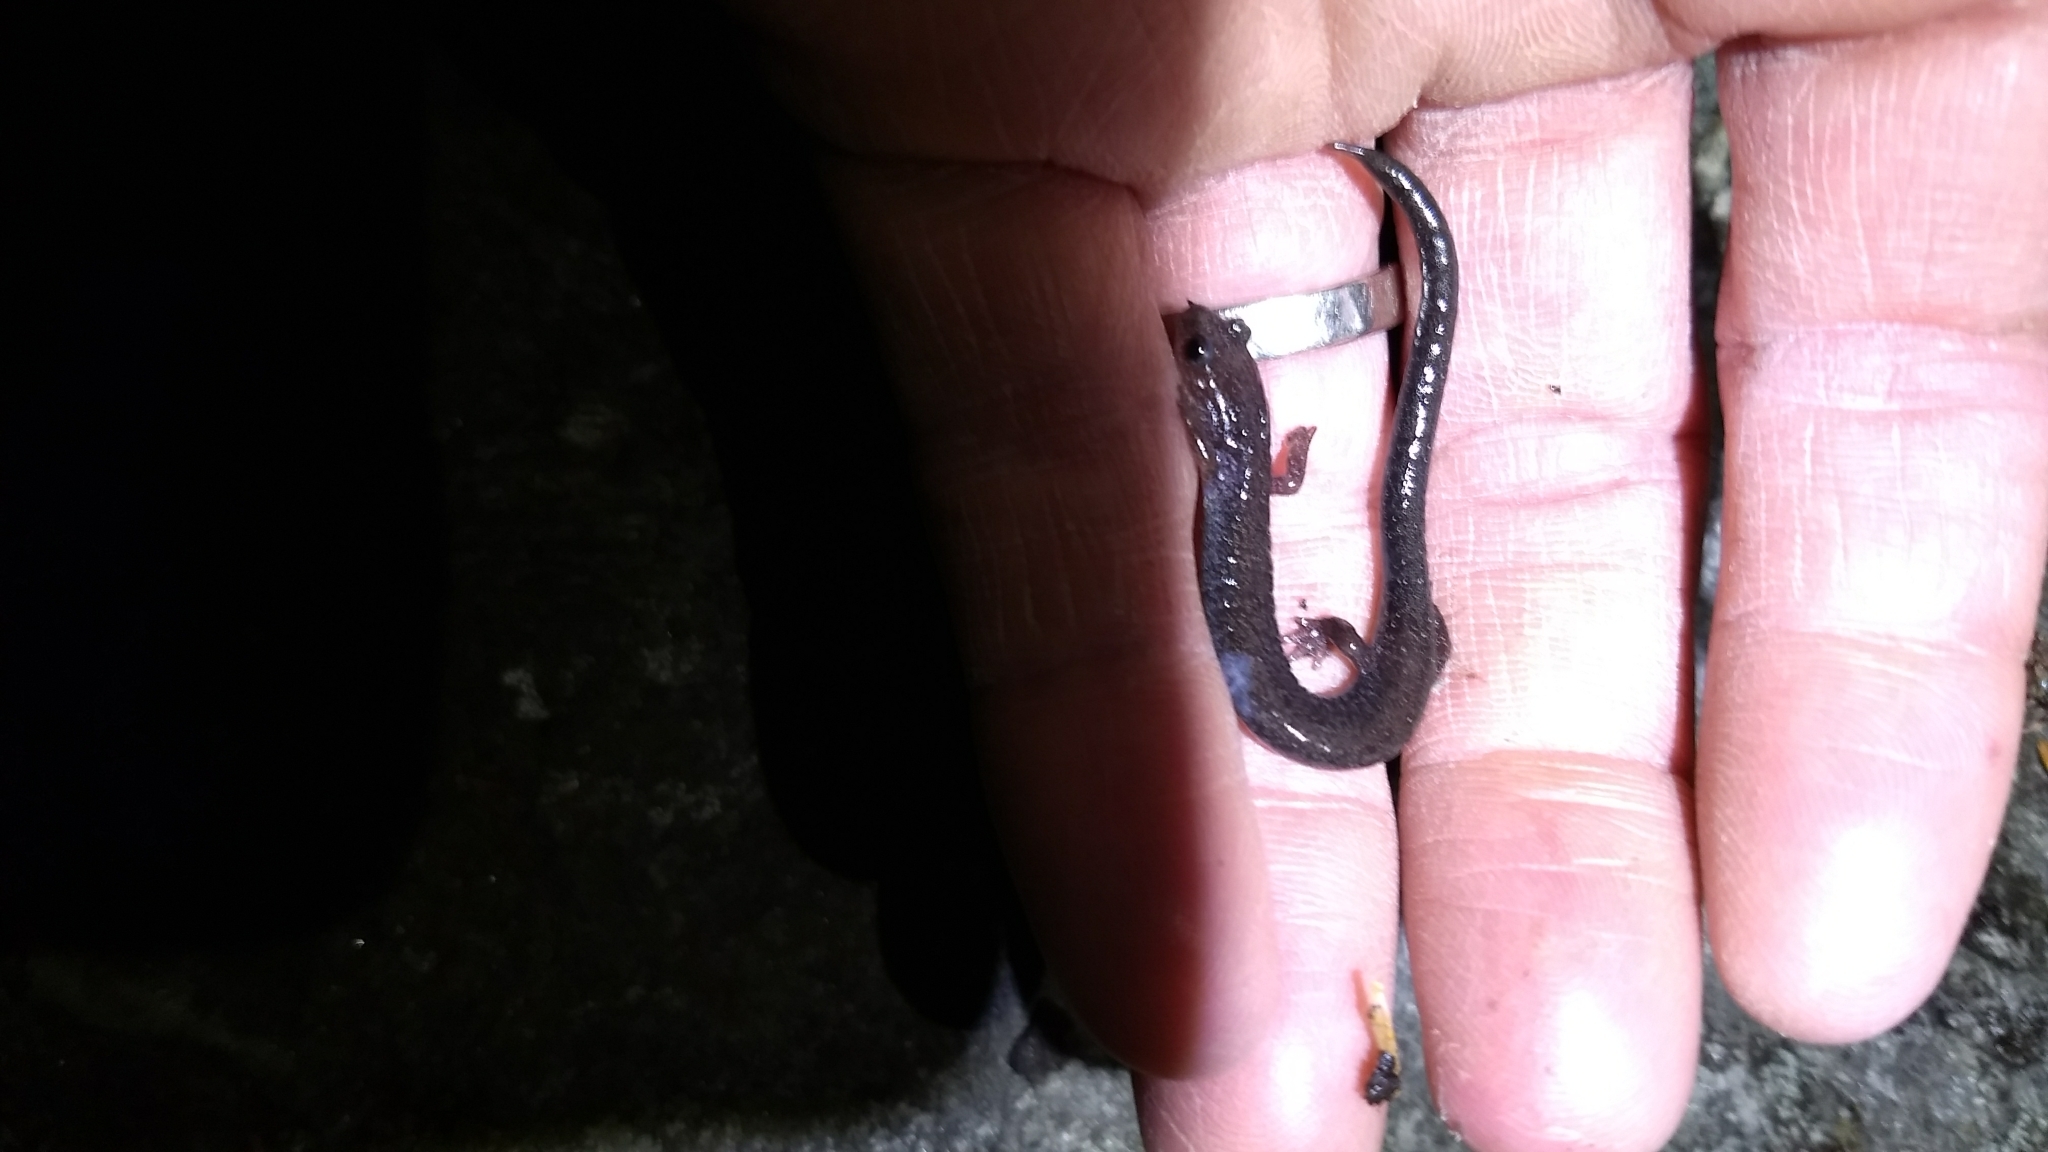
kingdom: Animalia
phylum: Chordata
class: Amphibia
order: Caudata
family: Plethodontidae
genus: Plethodon
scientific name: Plethodon cinereus
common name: Redback salamander
